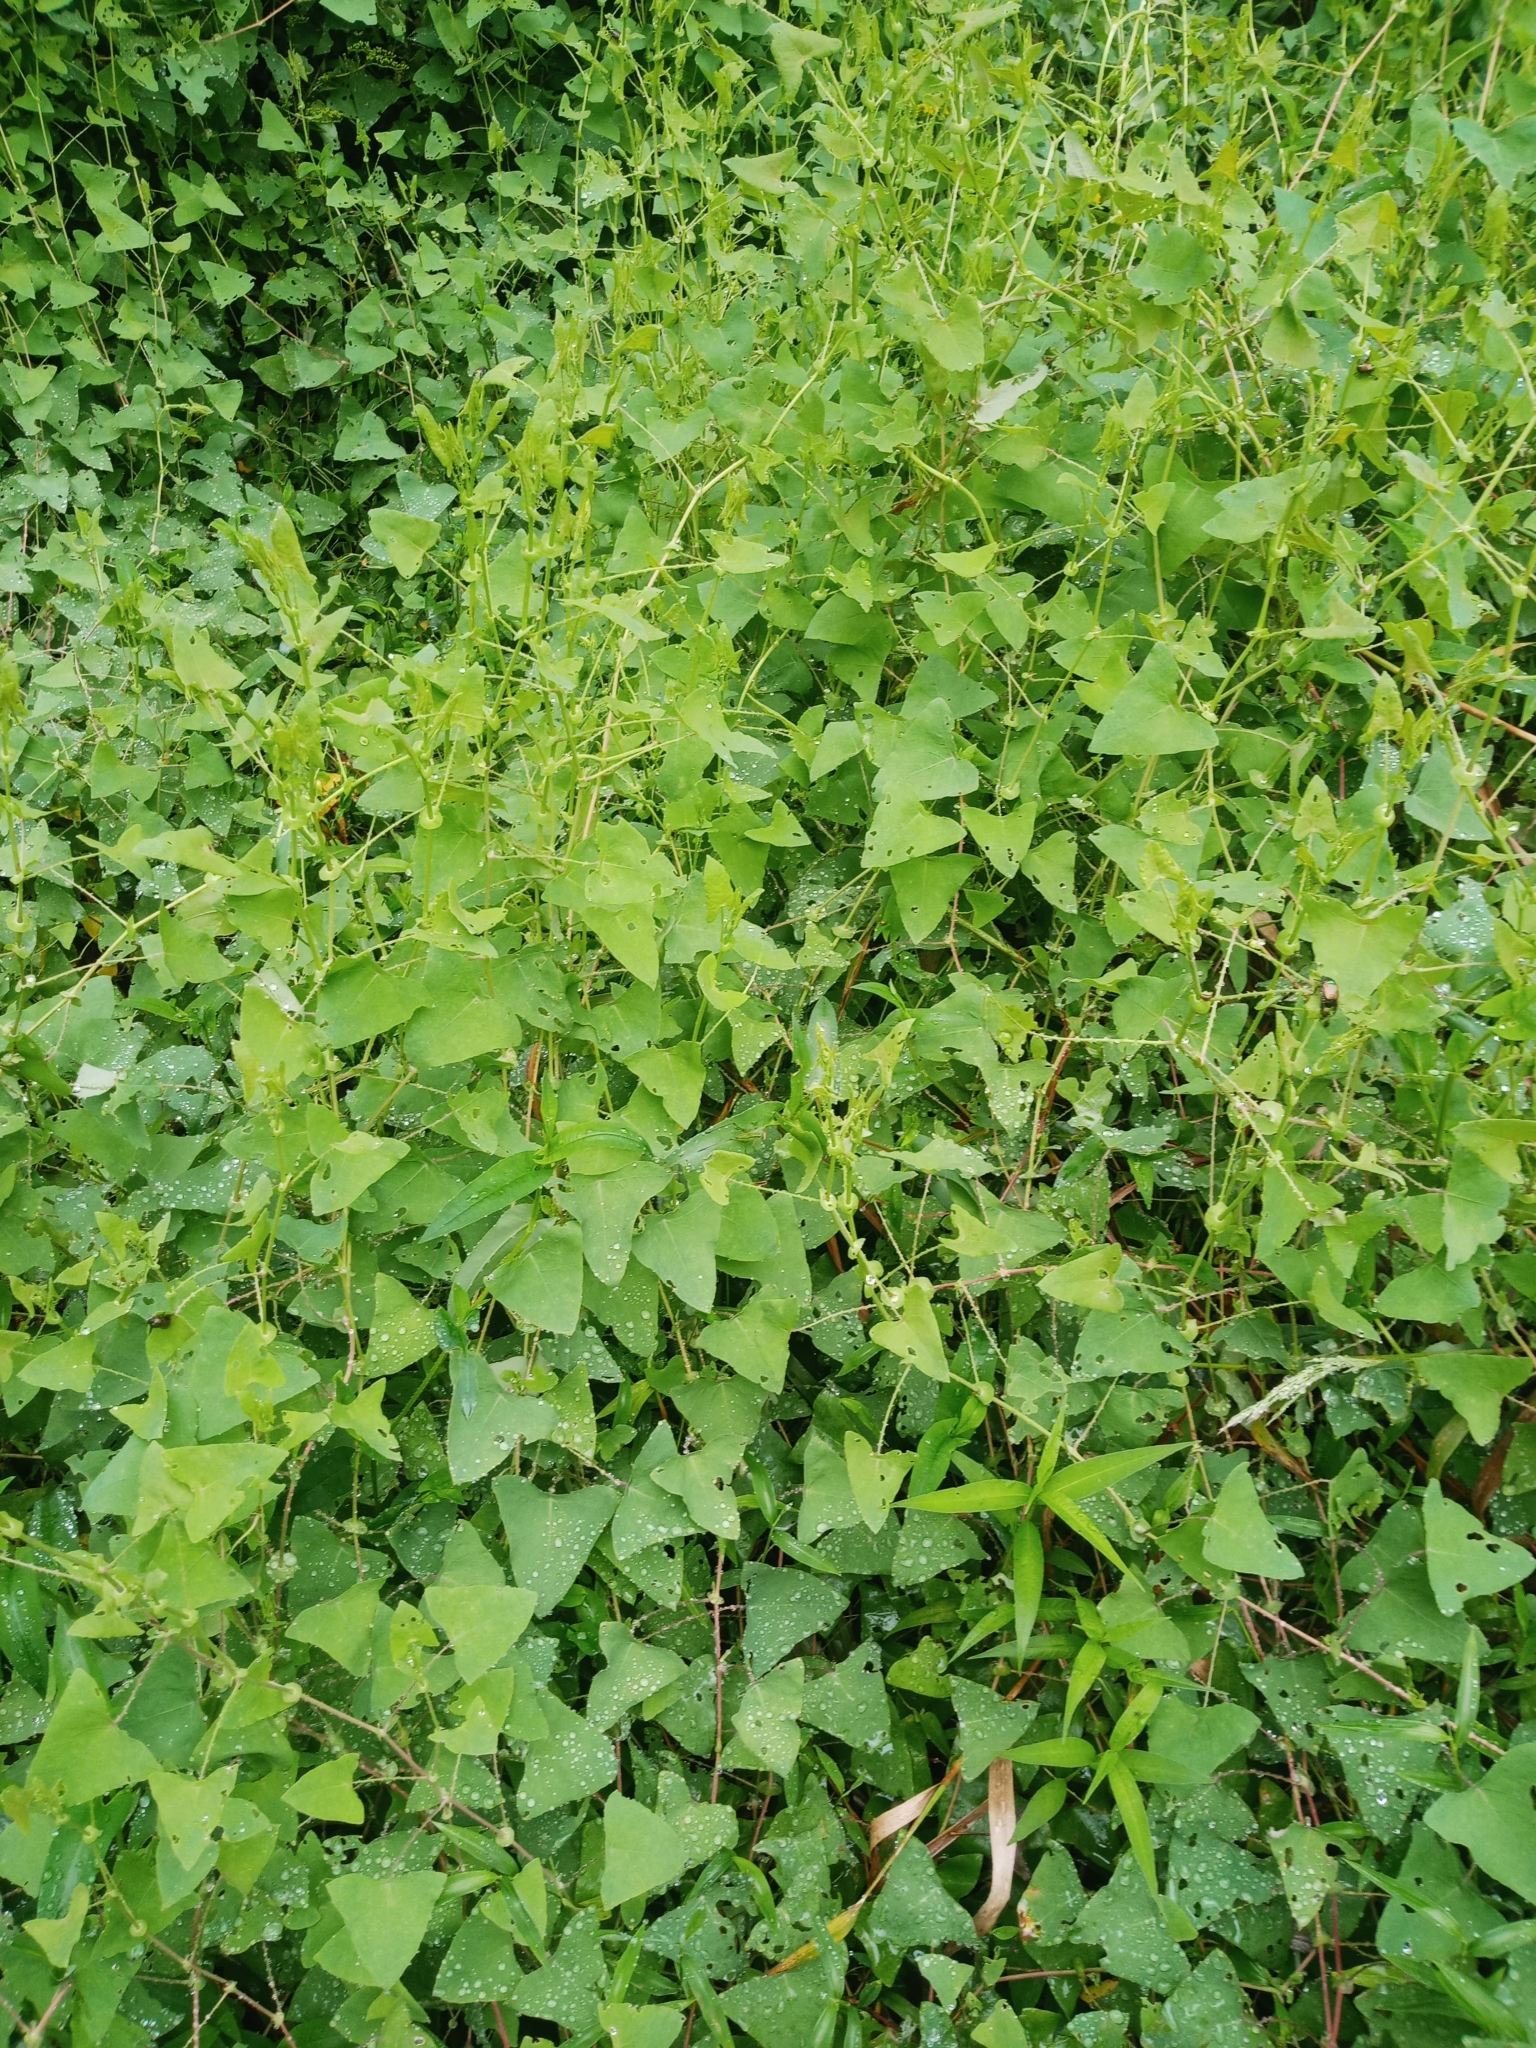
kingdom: Plantae
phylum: Tracheophyta
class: Magnoliopsida
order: Caryophyllales
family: Polygonaceae
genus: Persicaria
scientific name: Persicaria perfoliata
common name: Asiatic tearthumb
